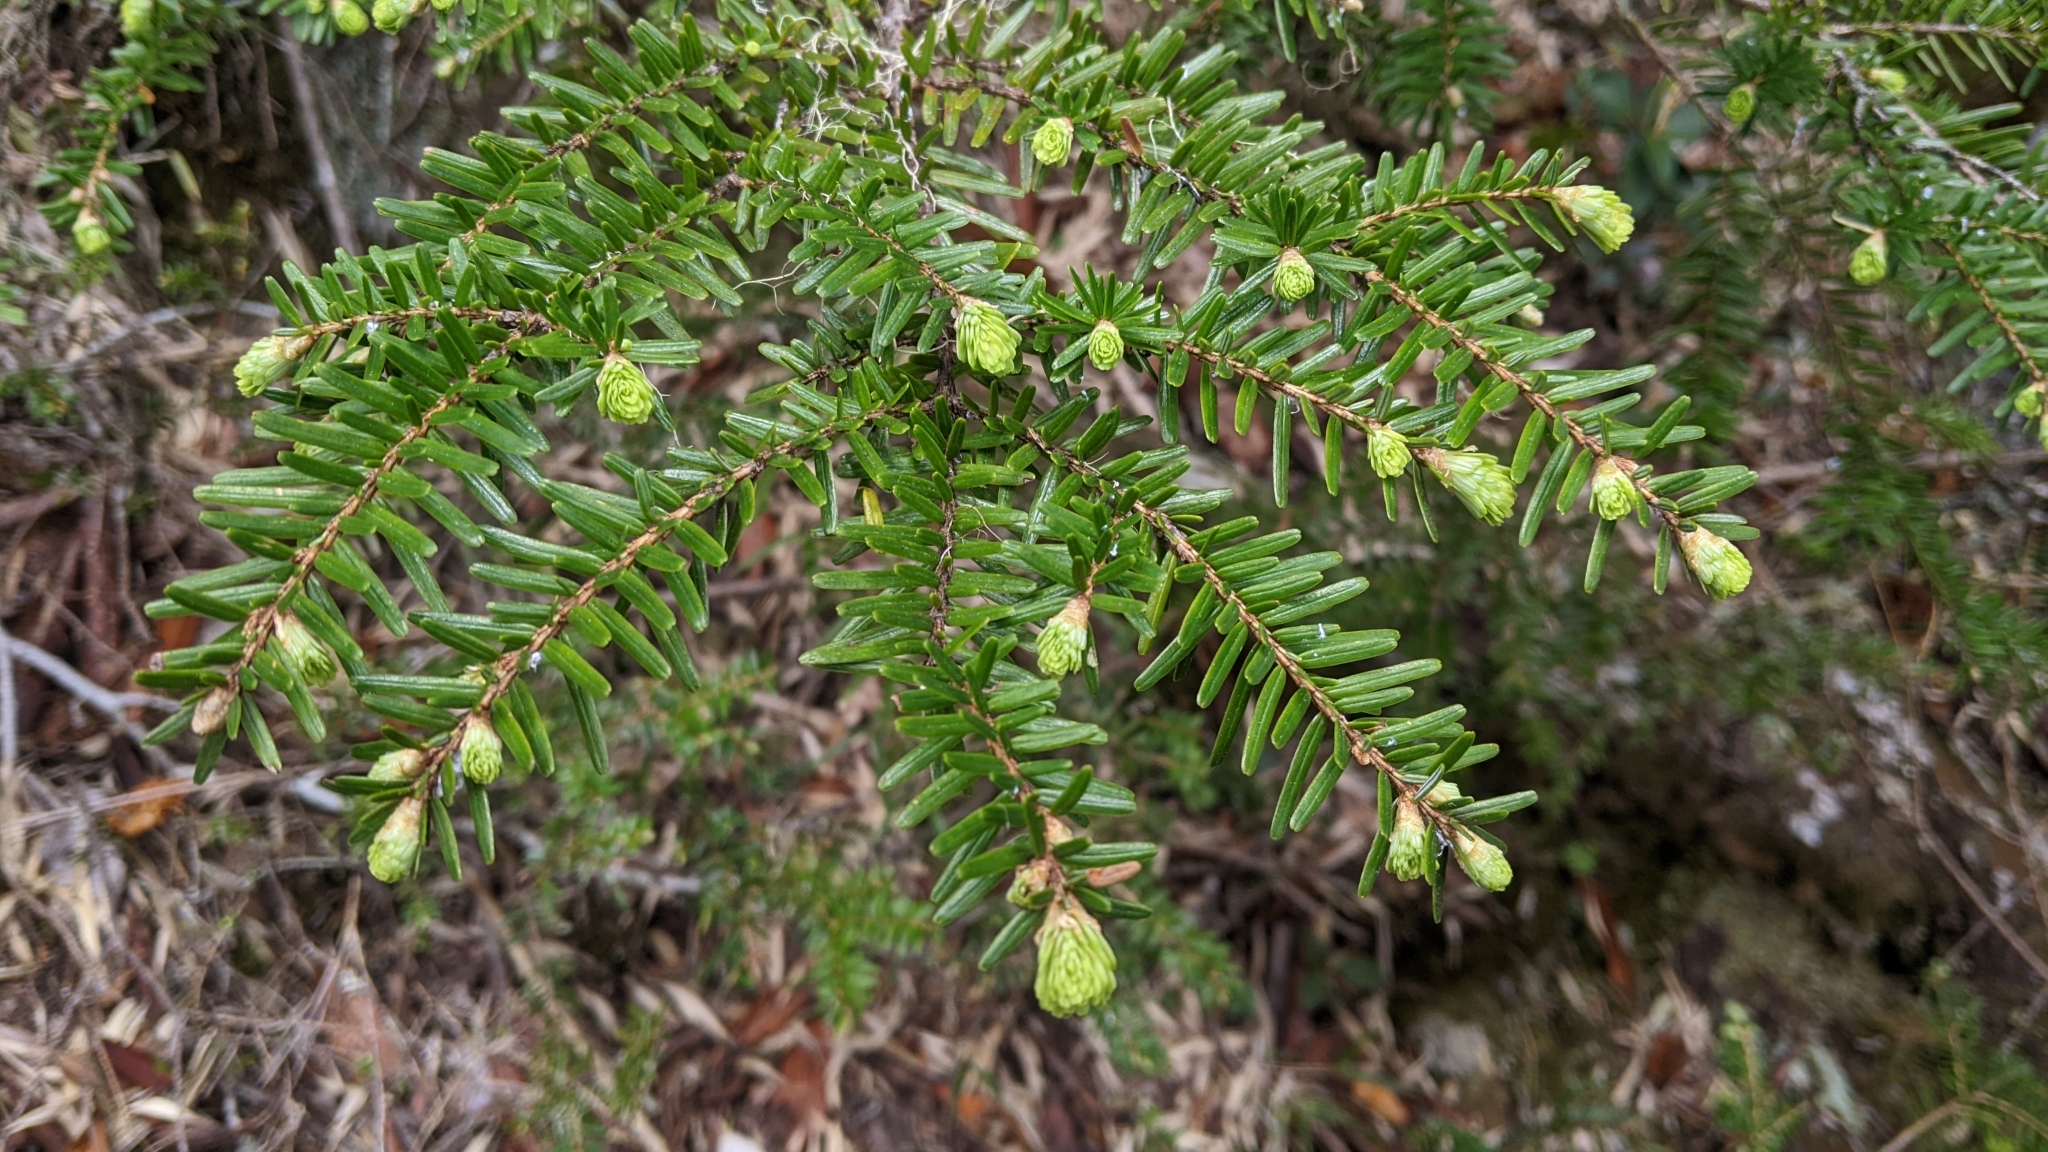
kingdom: Plantae
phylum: Tracheophyta
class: Pinopsida
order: Pinales
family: Pinaceae
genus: Tsuga
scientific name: Tsuga chinensis
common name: Chinese hemlock
